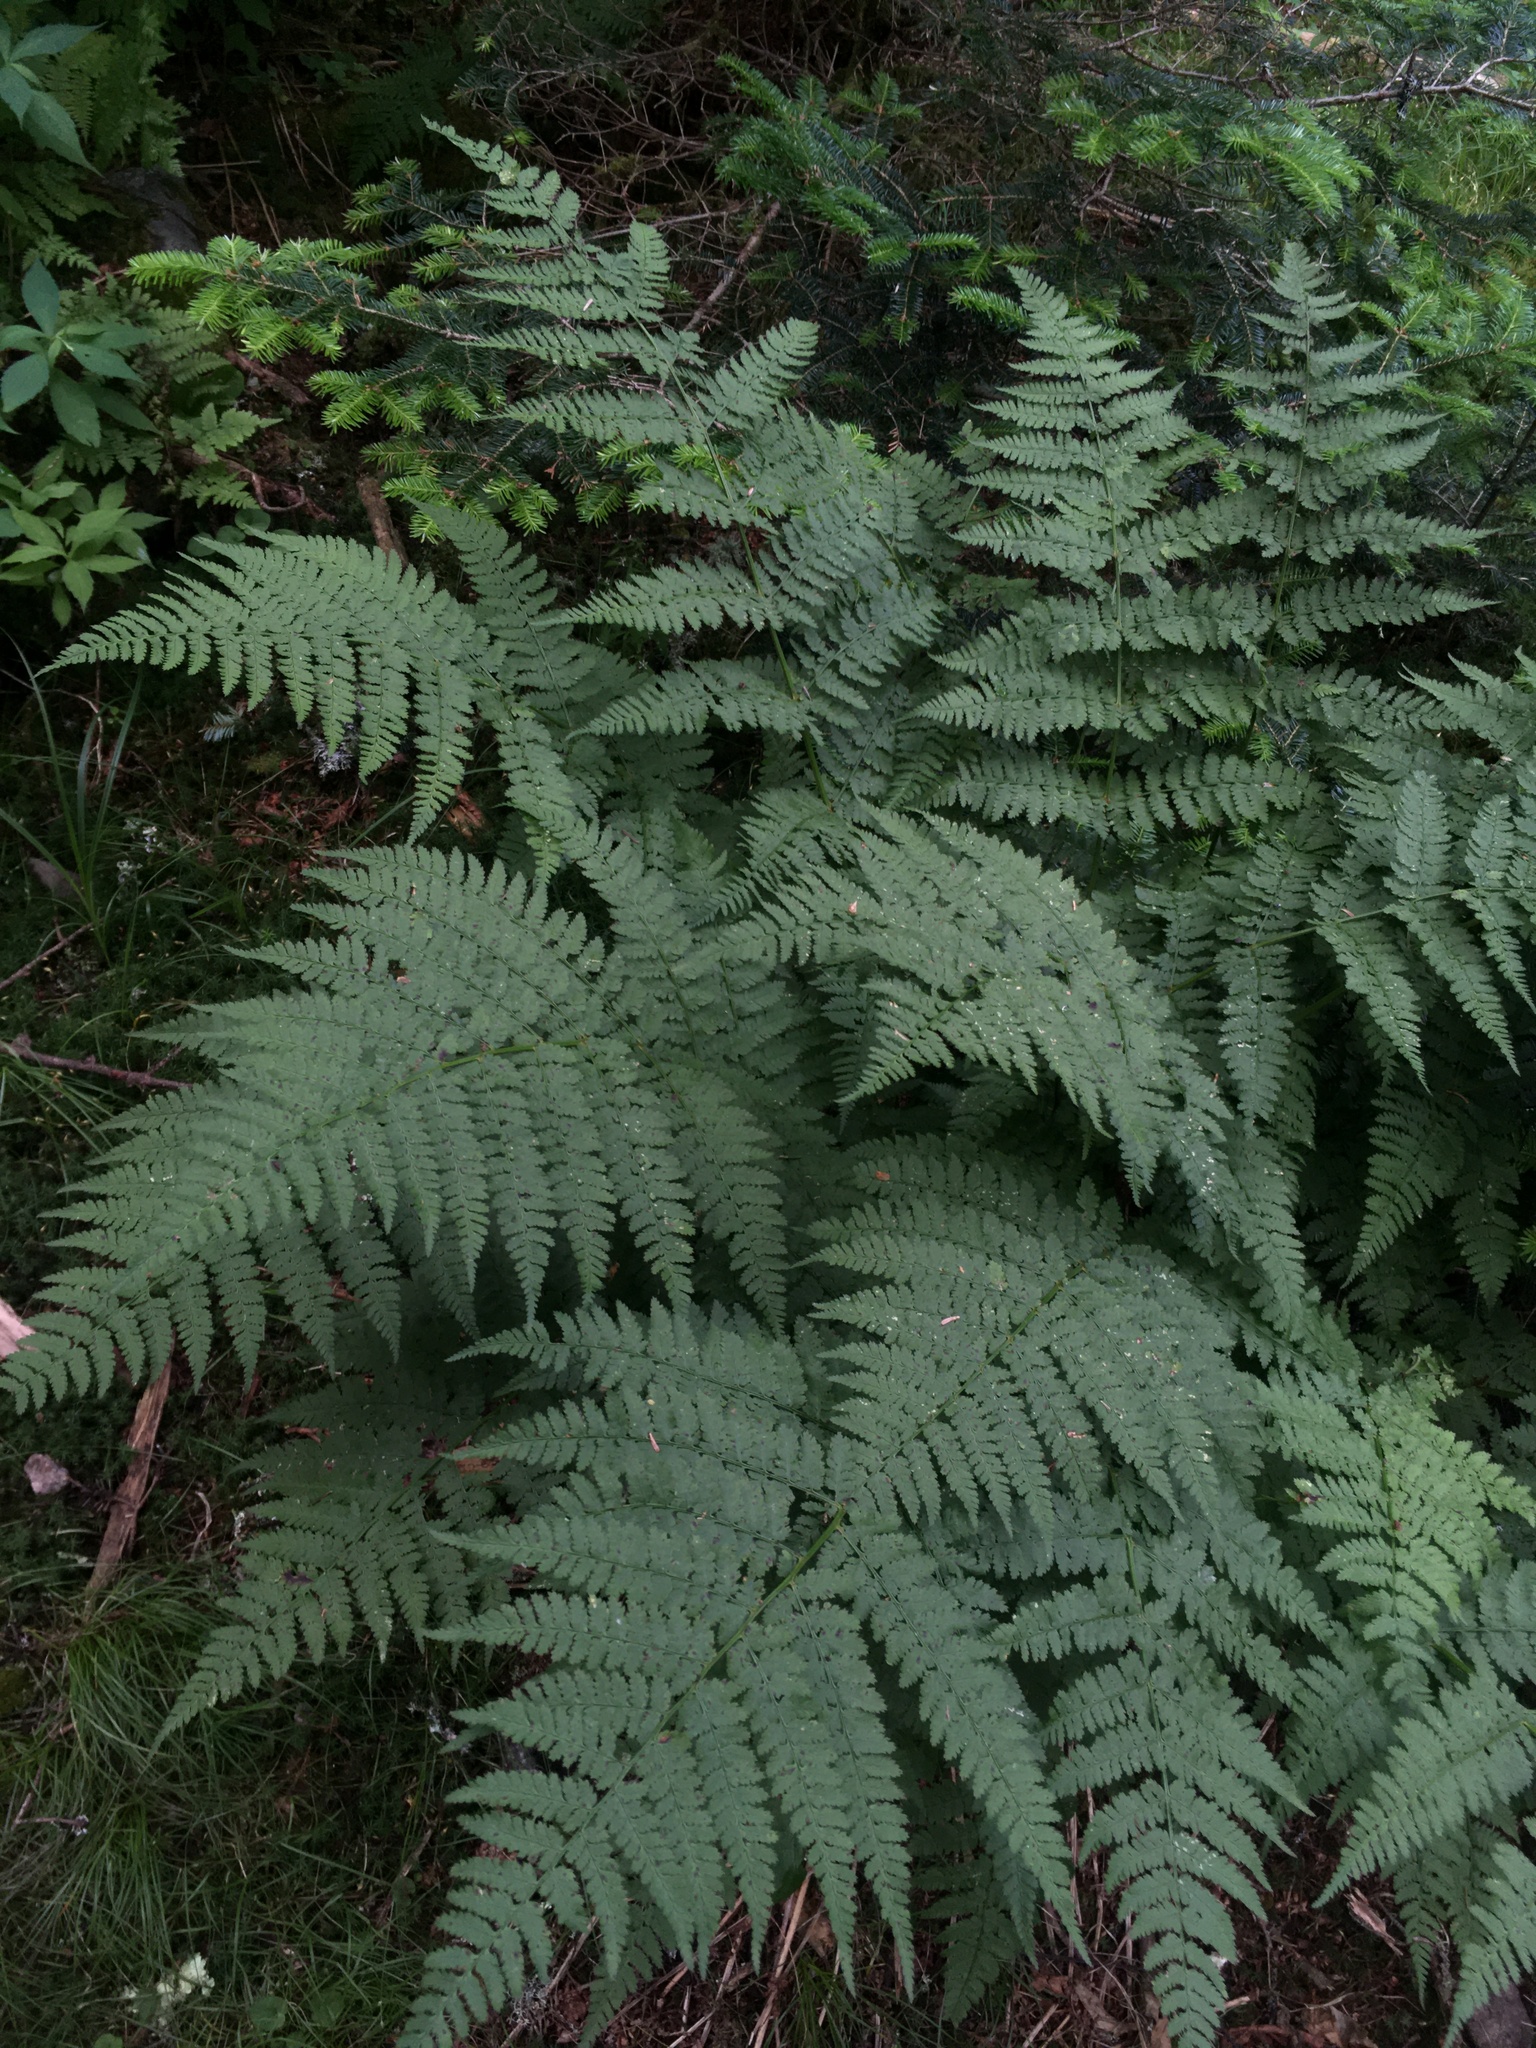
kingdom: Plantae
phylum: Tracheophyta
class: Polypodiopsida
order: Polypodiales
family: Dryopteridaceae
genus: Dryopteris
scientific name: Dryopteris intermedia
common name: Evergreen wood fern
